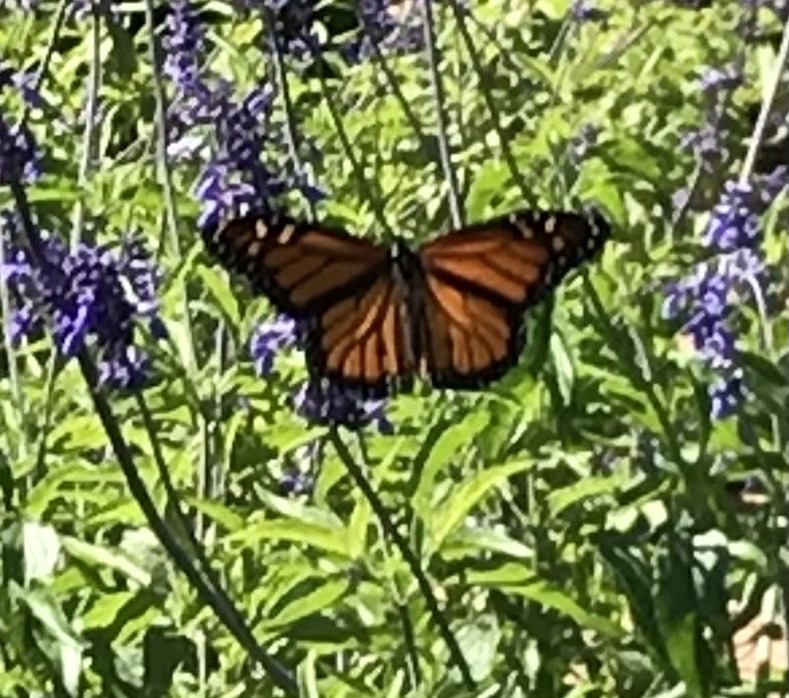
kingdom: Animalia
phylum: Arthropoda
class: Insecta
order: Lepidoptera
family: Nymphalidae
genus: Danaus
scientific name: Danaus plexippus
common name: Monarch
